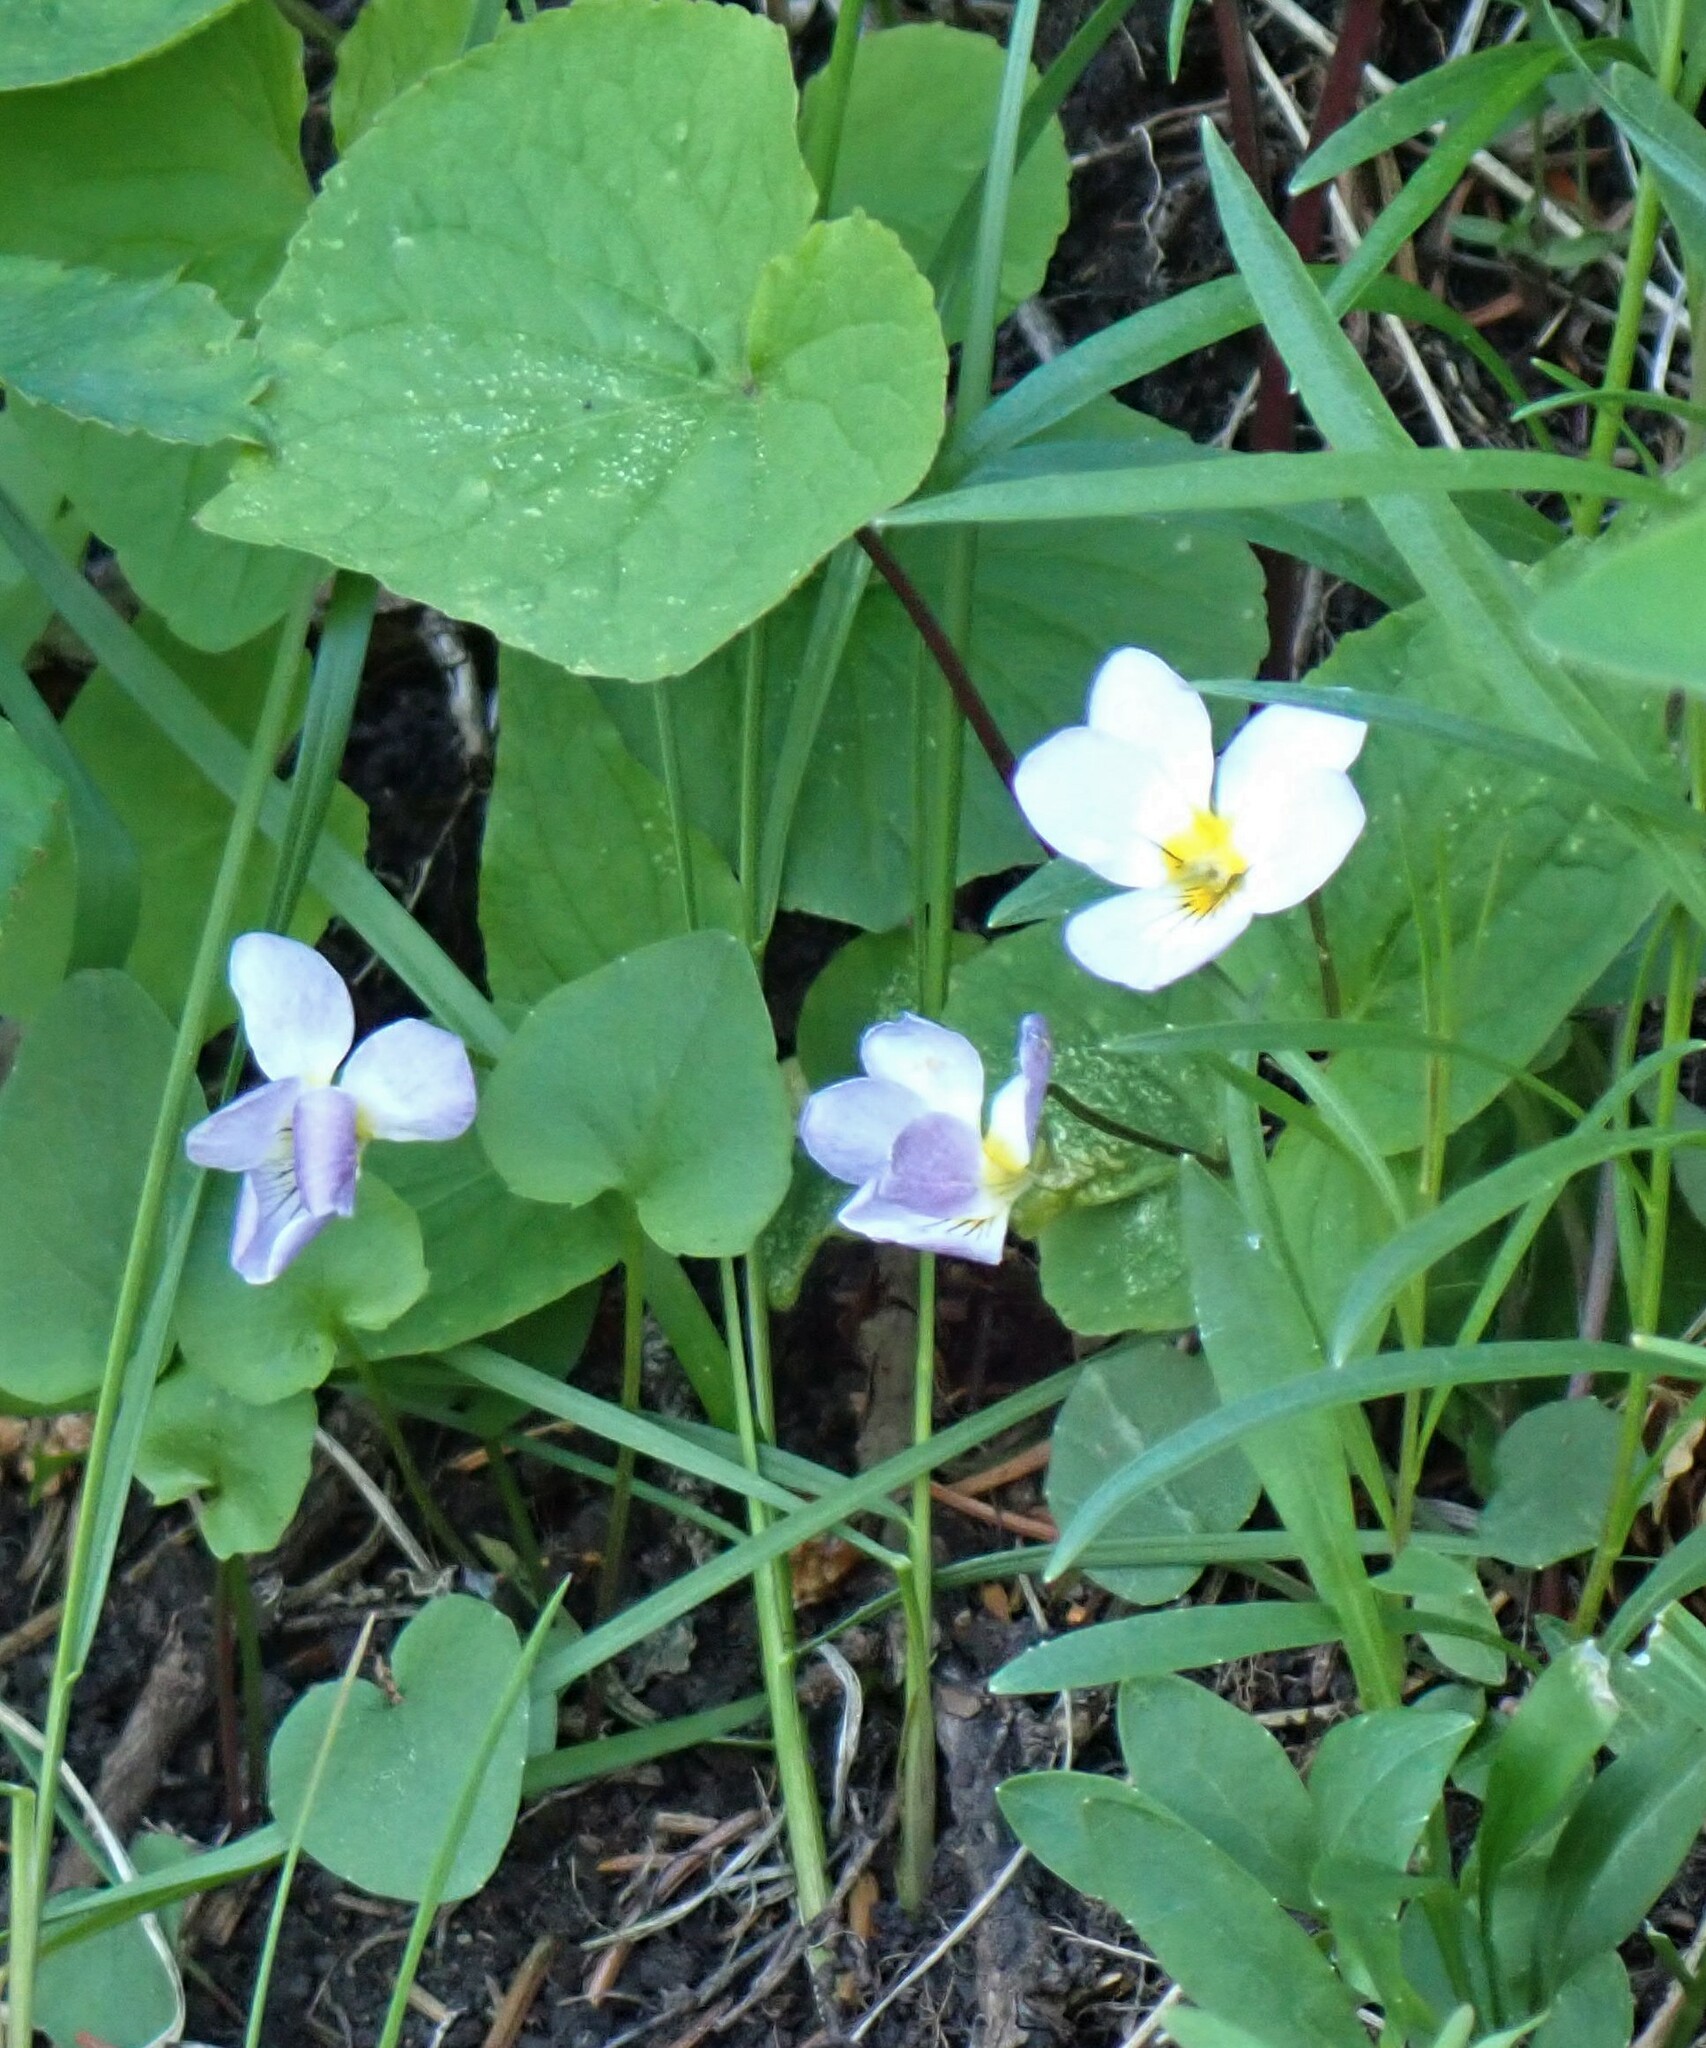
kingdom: Plantae
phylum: Tracheophyta
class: Magnoliopsida
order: Malpighiales
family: Violaceae
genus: Viola
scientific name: Viola canadensis
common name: Canada violet
